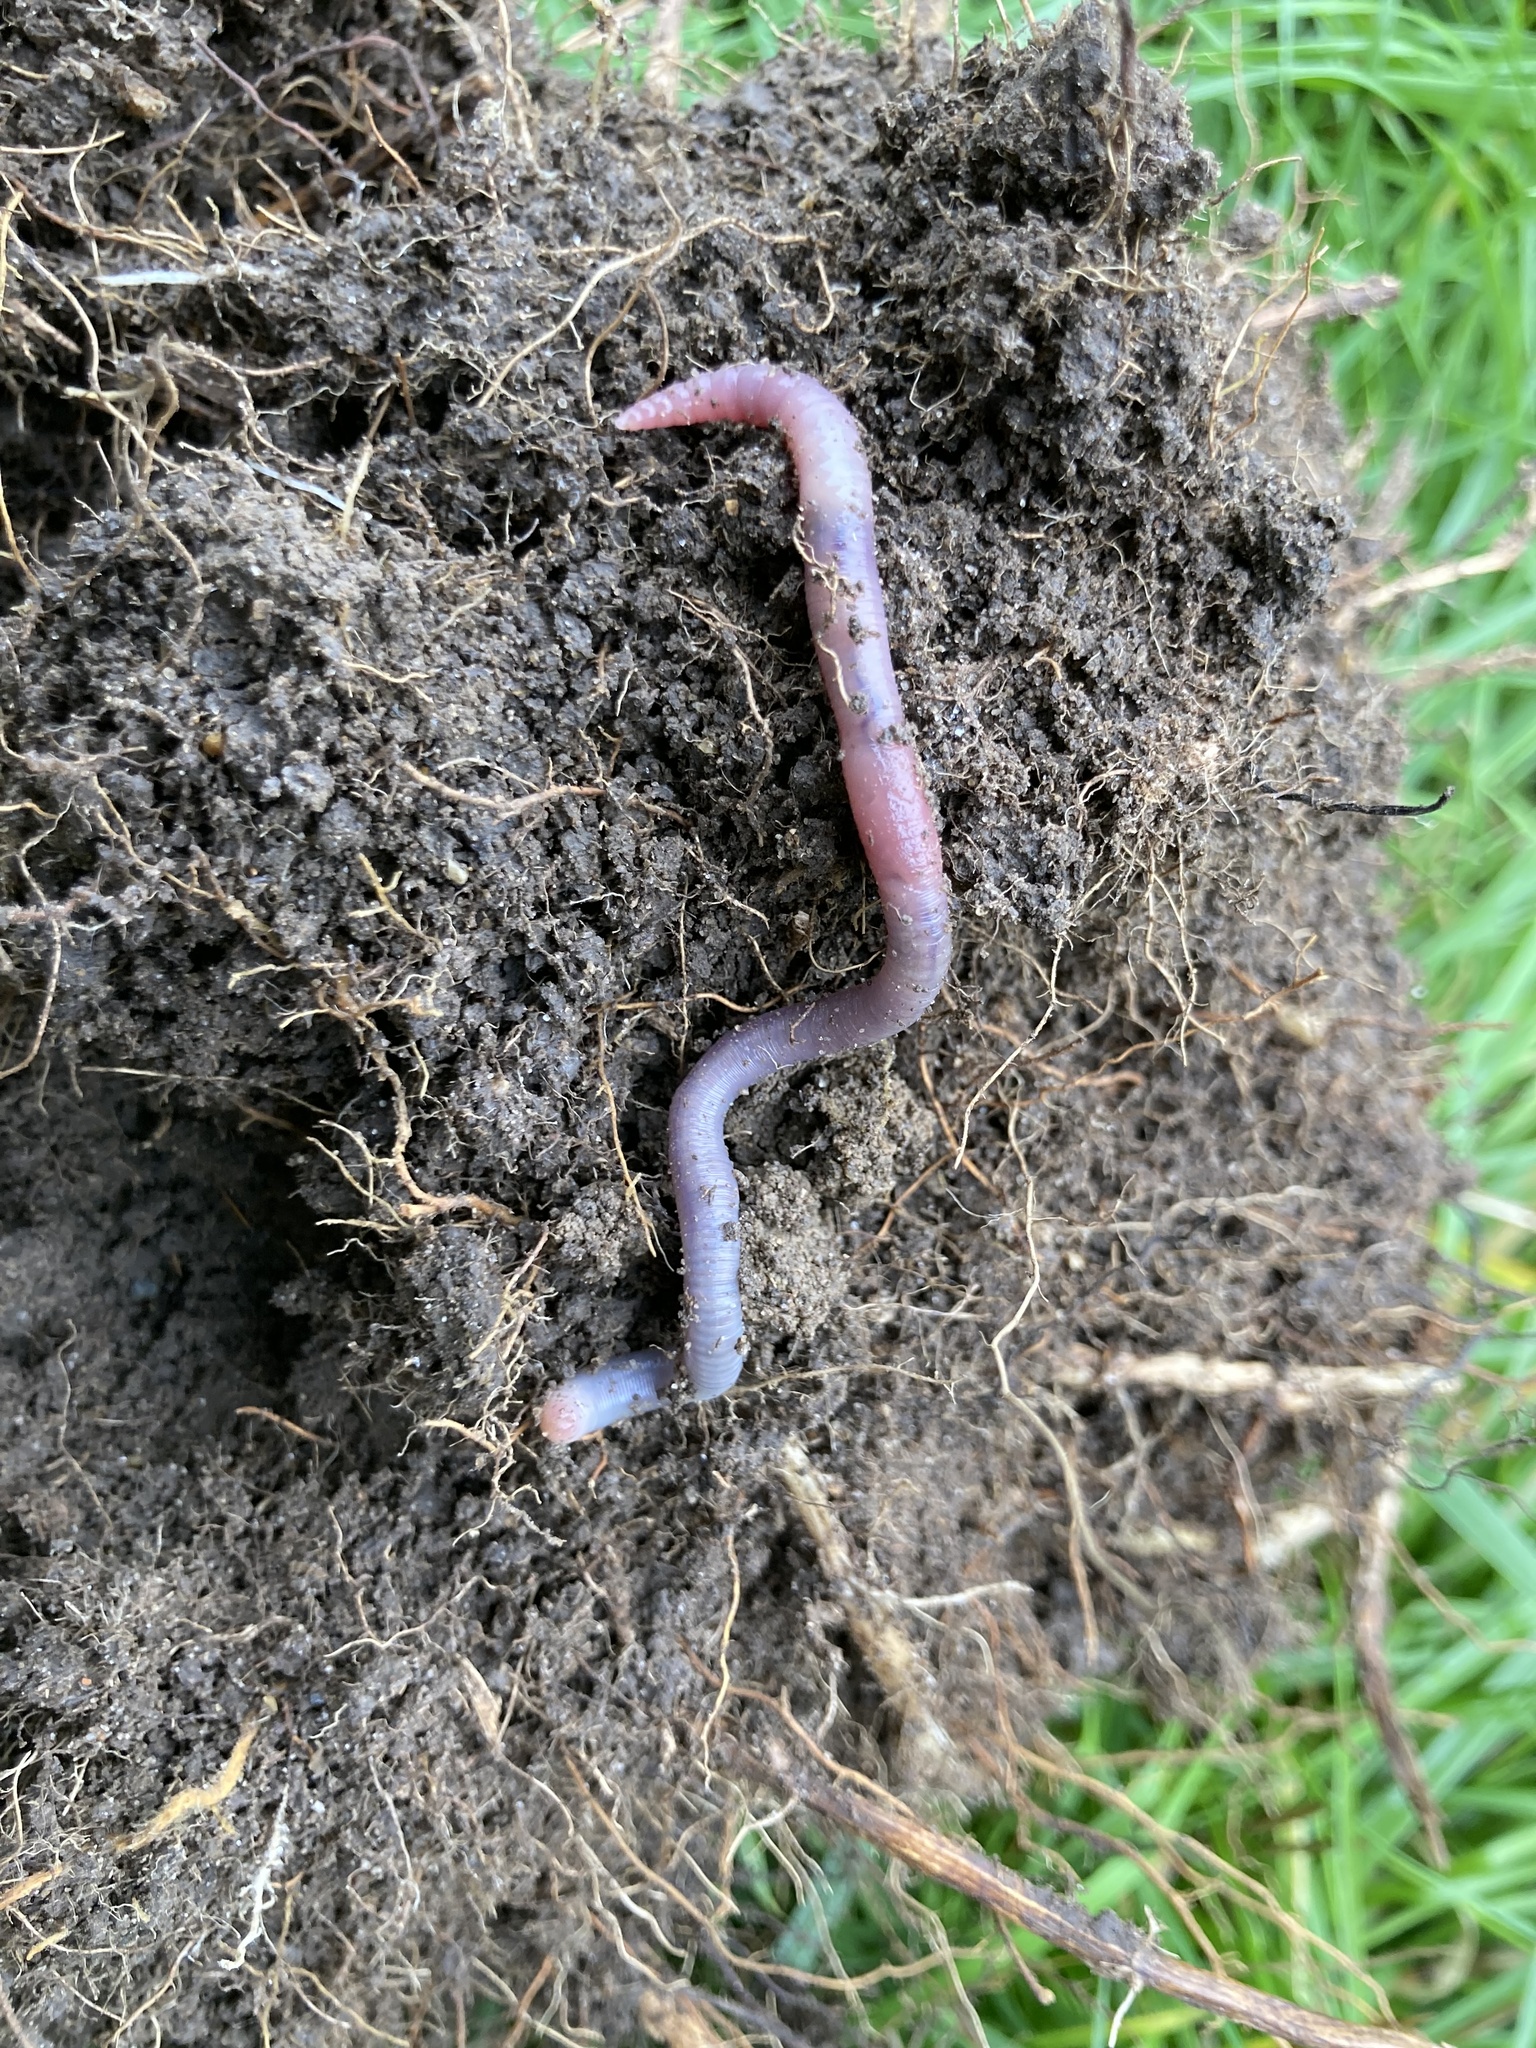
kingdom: Animalia
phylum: Annelida
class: Clitellata
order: Crassiclitellata
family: Lumbricidae
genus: Aporrectodea
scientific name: Aporrectodea icterica
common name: Earthworm
